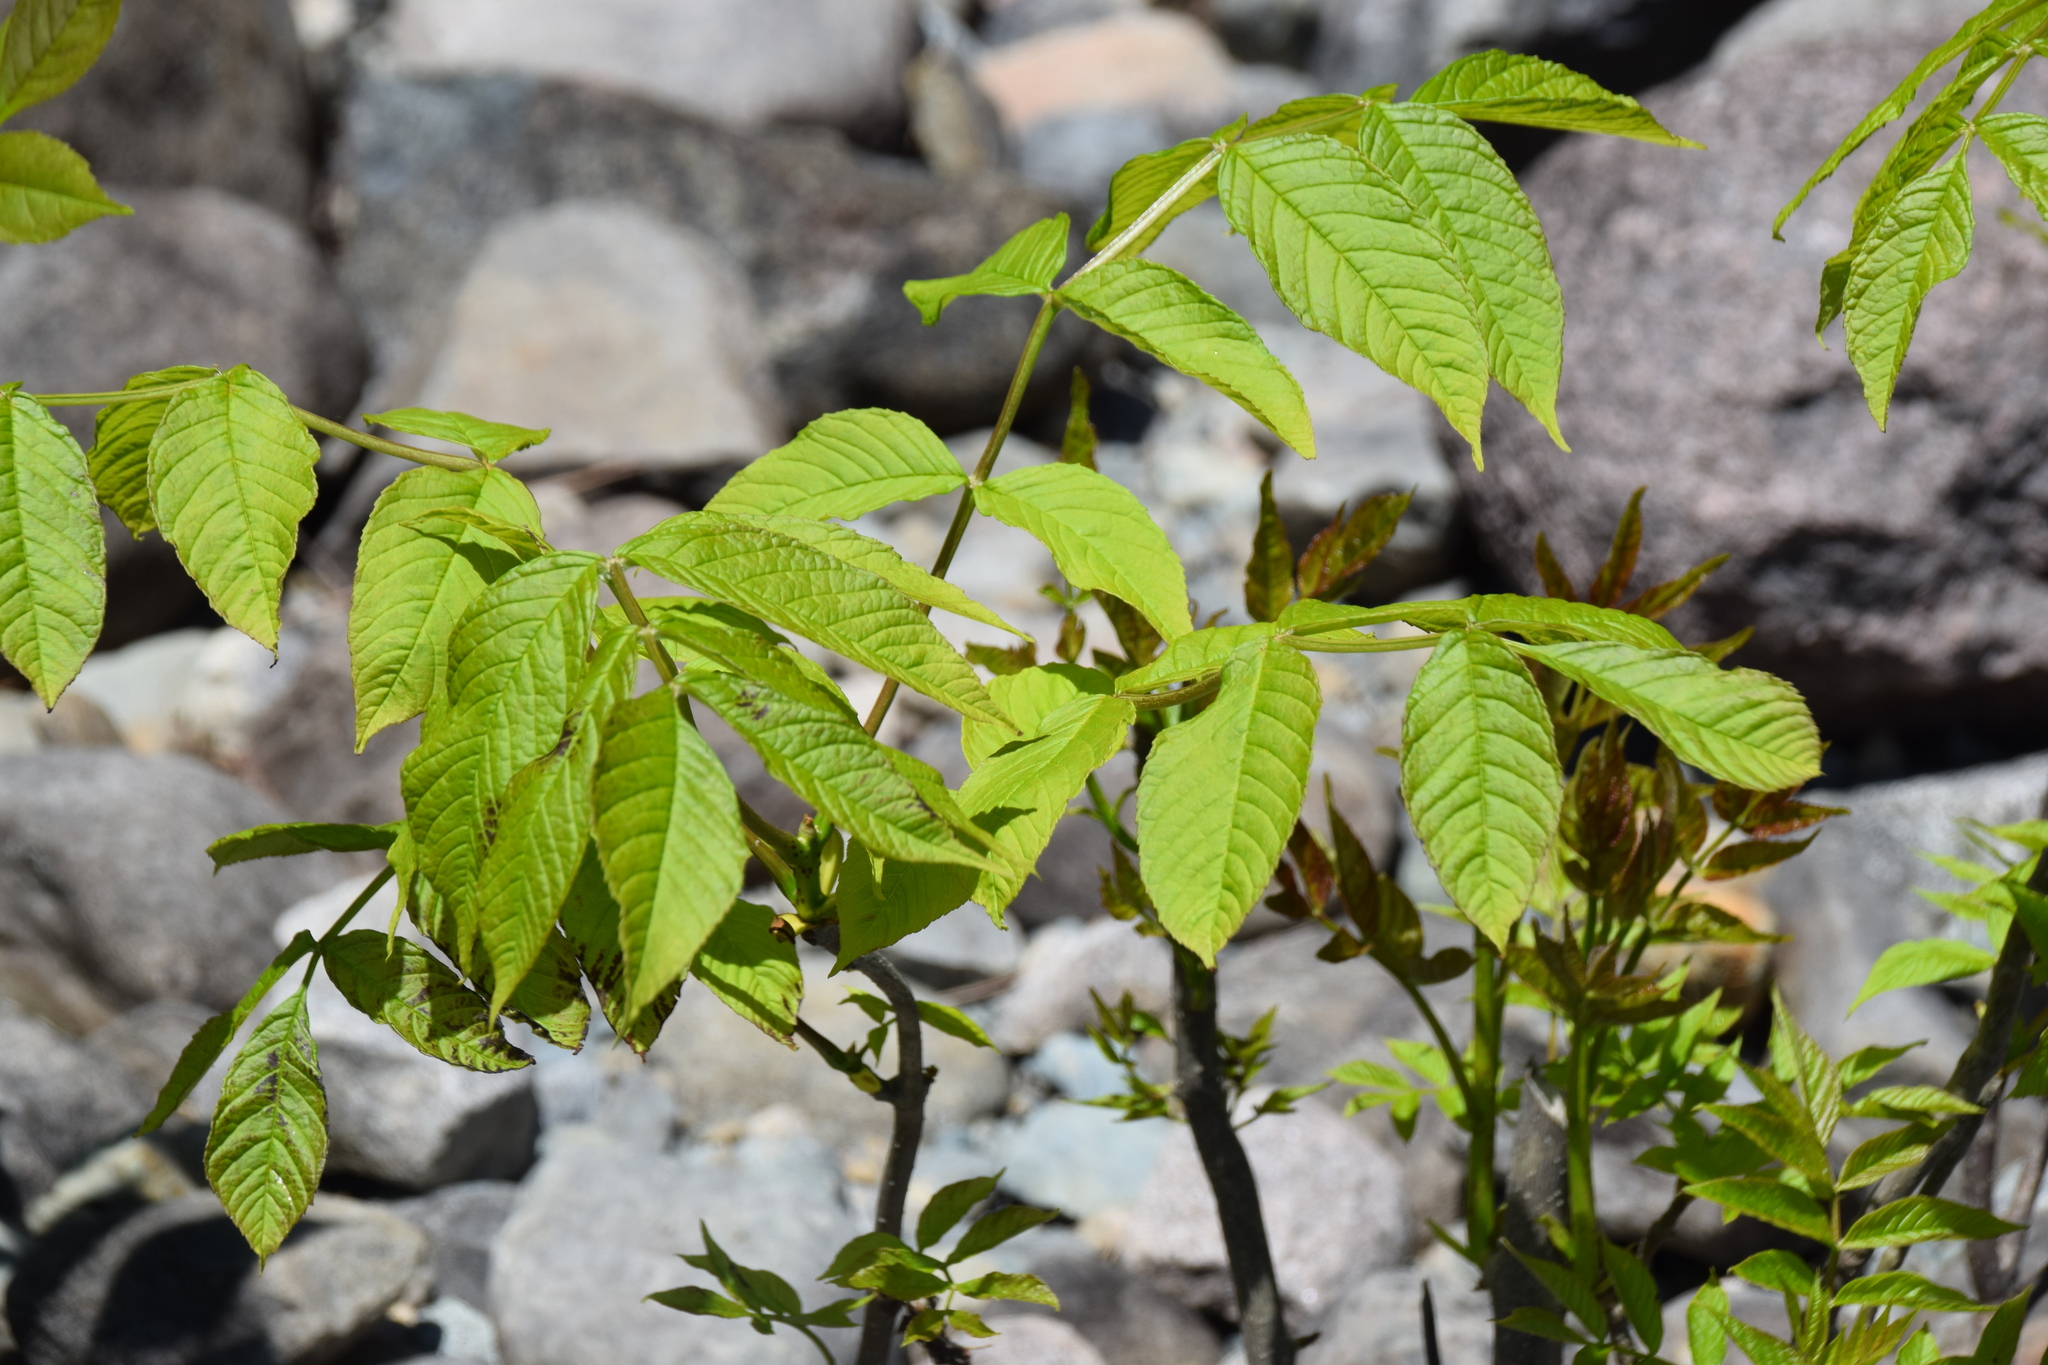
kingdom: Plantae
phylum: Tracheophyta
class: Magnoliopsida
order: Lamiales
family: Oleaceae
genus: Fraxinus
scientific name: Fraxinus nigra
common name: Black ash
